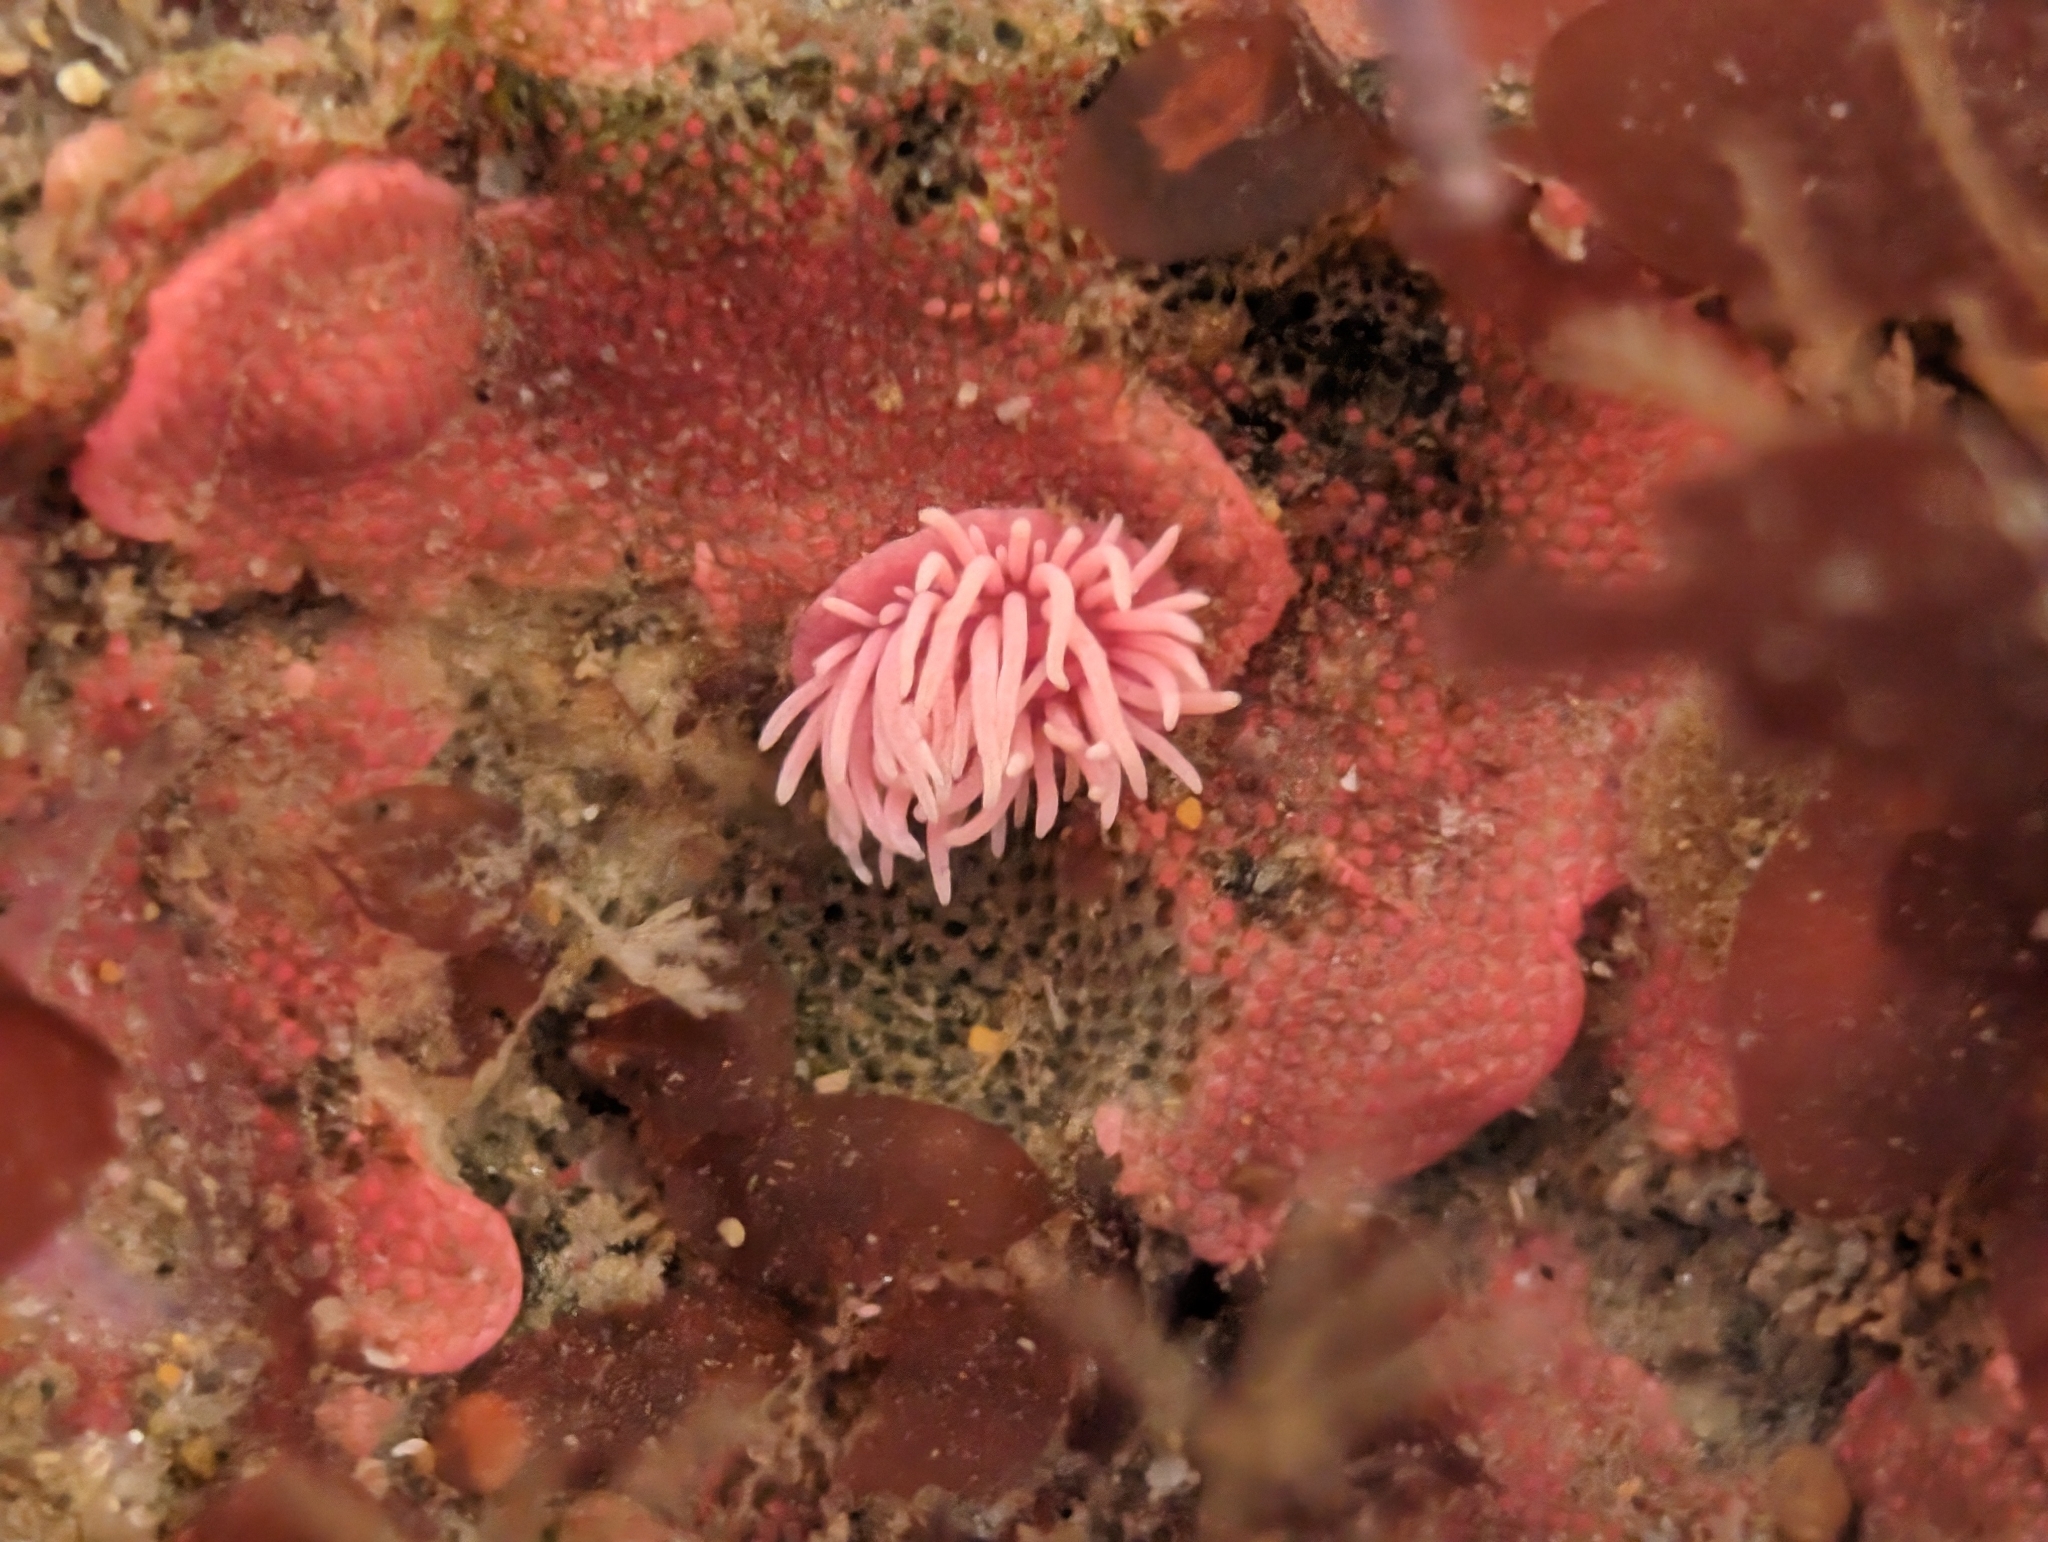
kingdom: Animalia
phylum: Mollusca
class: Gastropoda
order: Nudibranchia
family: Goniodorididae
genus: Okenia
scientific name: Okenia
